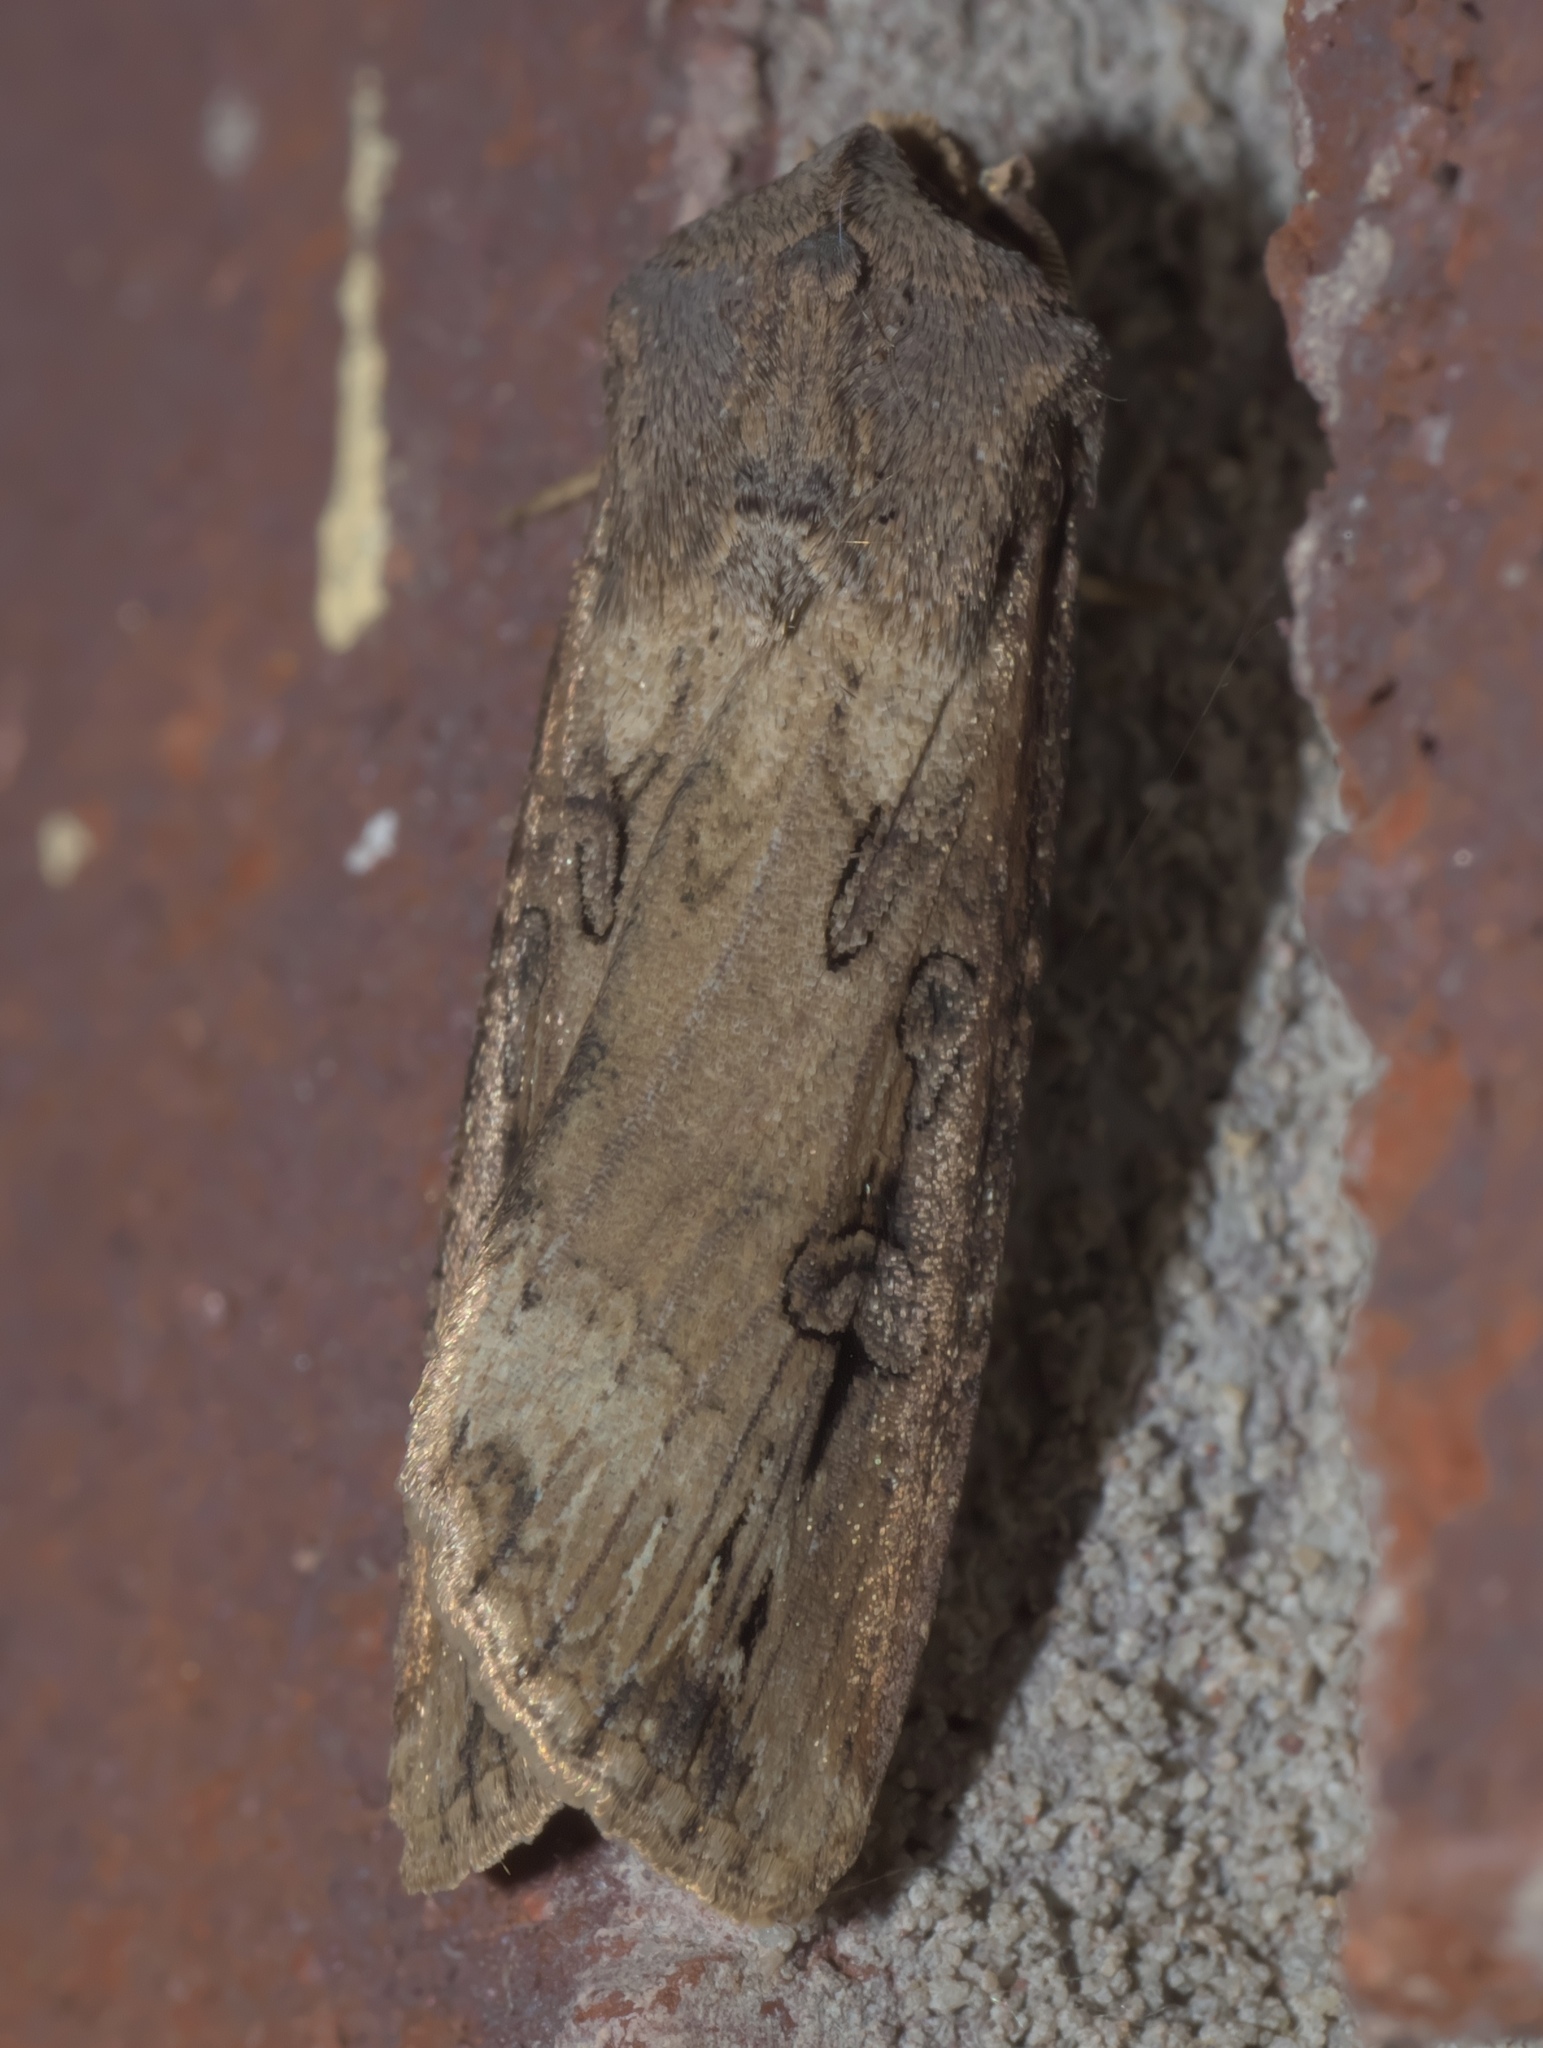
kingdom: Animalia
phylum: Arthropoda
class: Insecta
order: Lepidoptera
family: Noctuidae
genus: Agrotis
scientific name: Agrotis ipsilon
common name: Dark sword-grass
